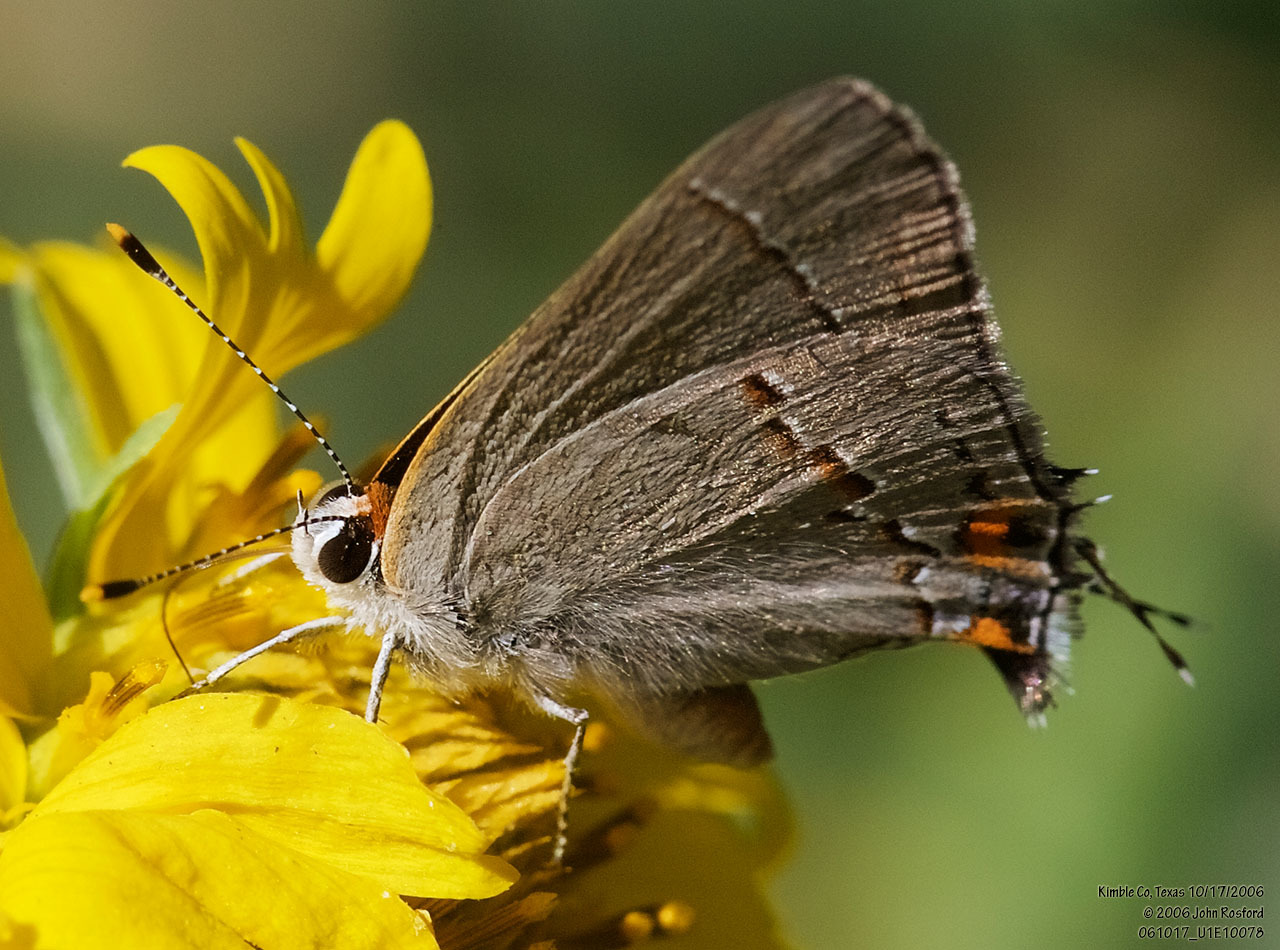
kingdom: Animalia
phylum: Arthropoda
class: Insecta
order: Lepidoptera
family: Lycaenidae
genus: Strymon
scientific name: Strymon melinus
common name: Gray hairstreak
